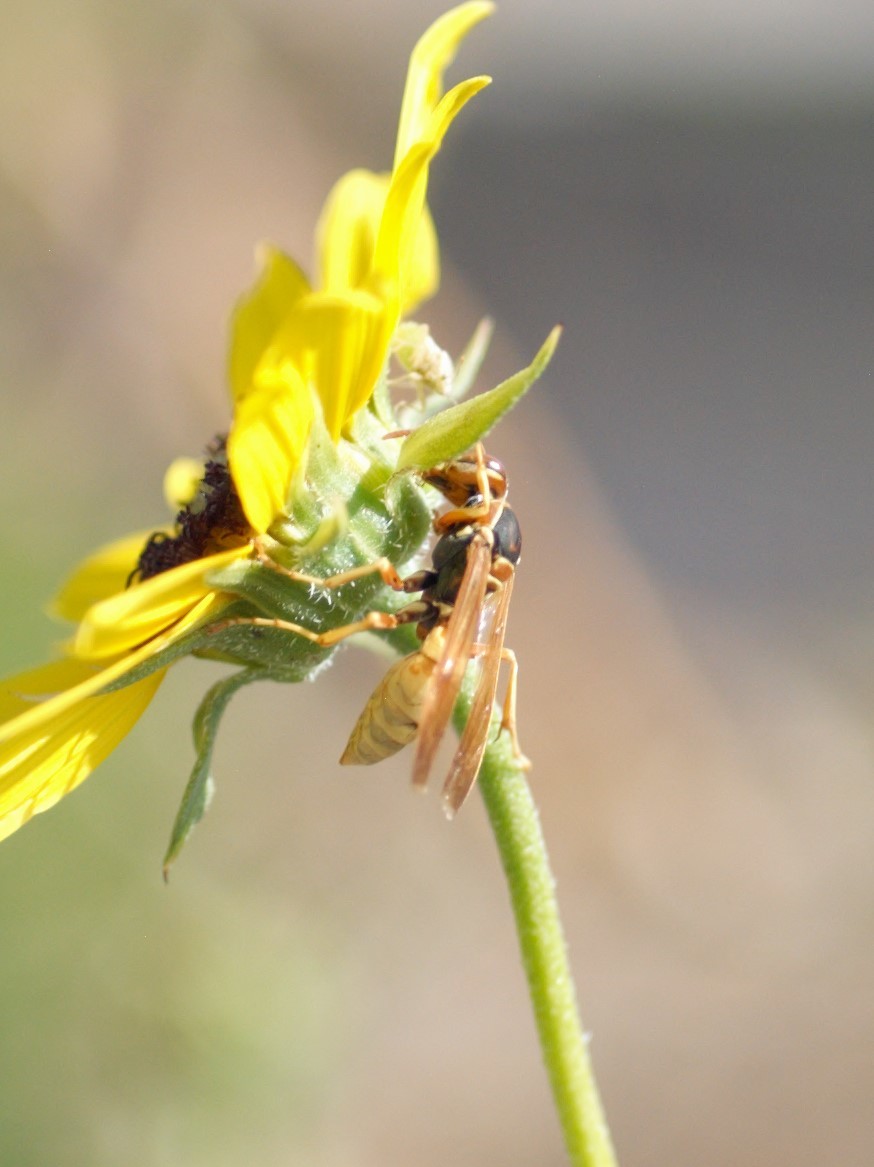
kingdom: Animalia
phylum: Arthropoda
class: Insecta
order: Hymenoptera
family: Eumenidae
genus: Polistes
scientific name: Polistes aurifer
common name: Paper wasp
